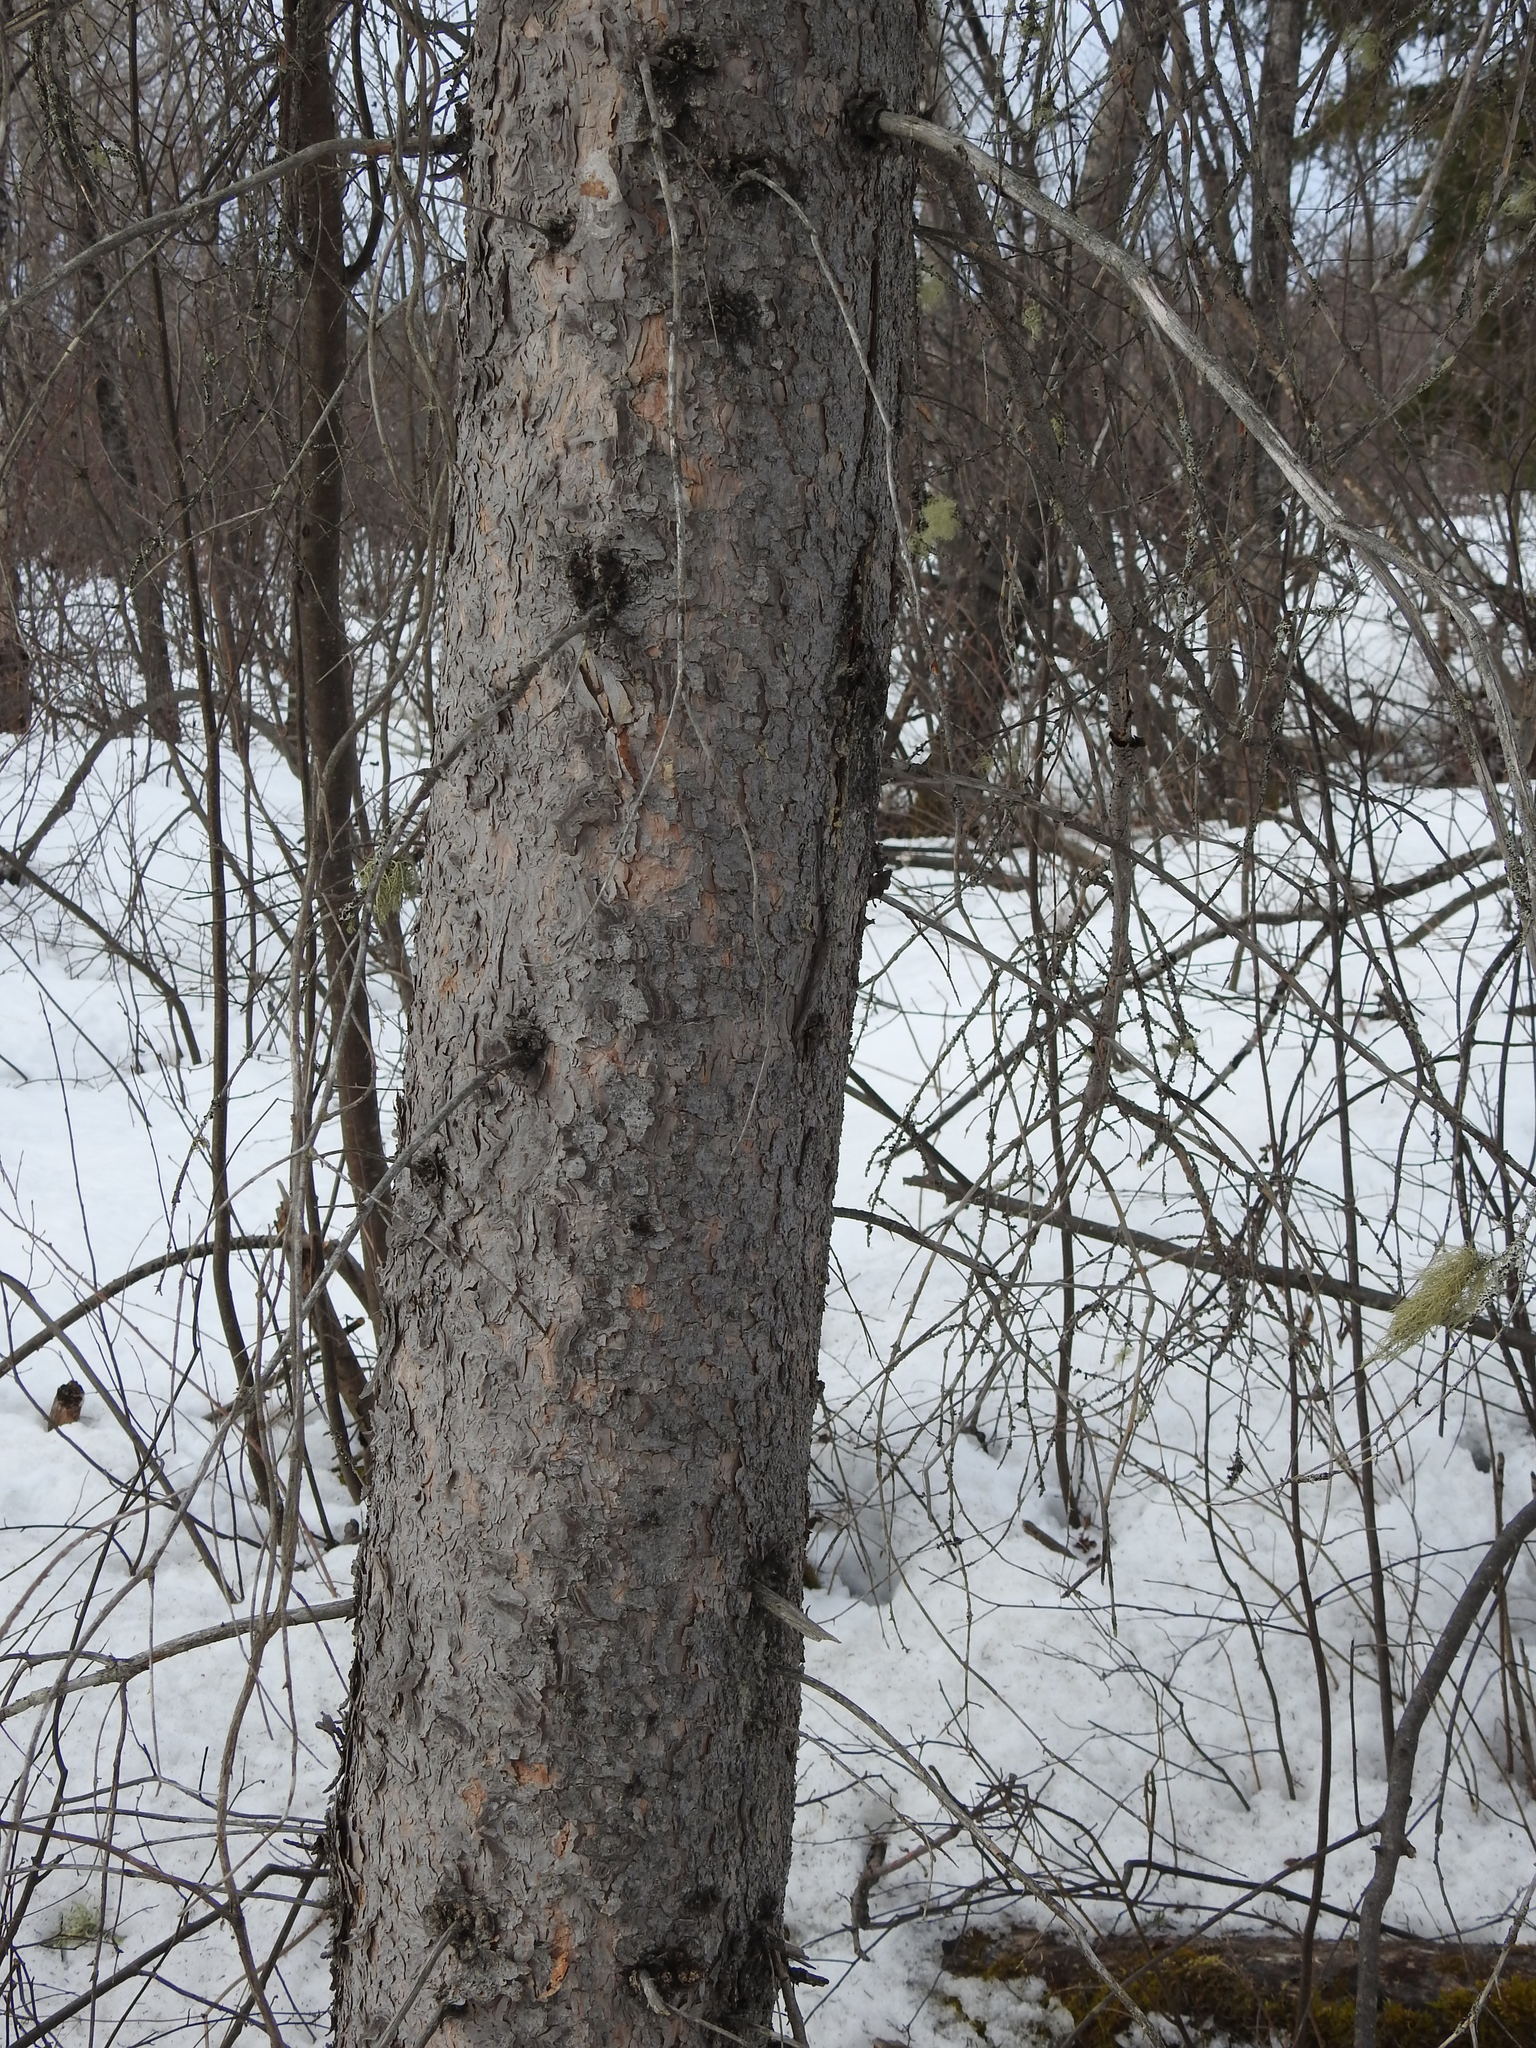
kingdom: Plantae
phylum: Tracheophyta
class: Pinopsida
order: Pinales
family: Pinaceae
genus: Picea
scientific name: Picea glauca
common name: White spruce
